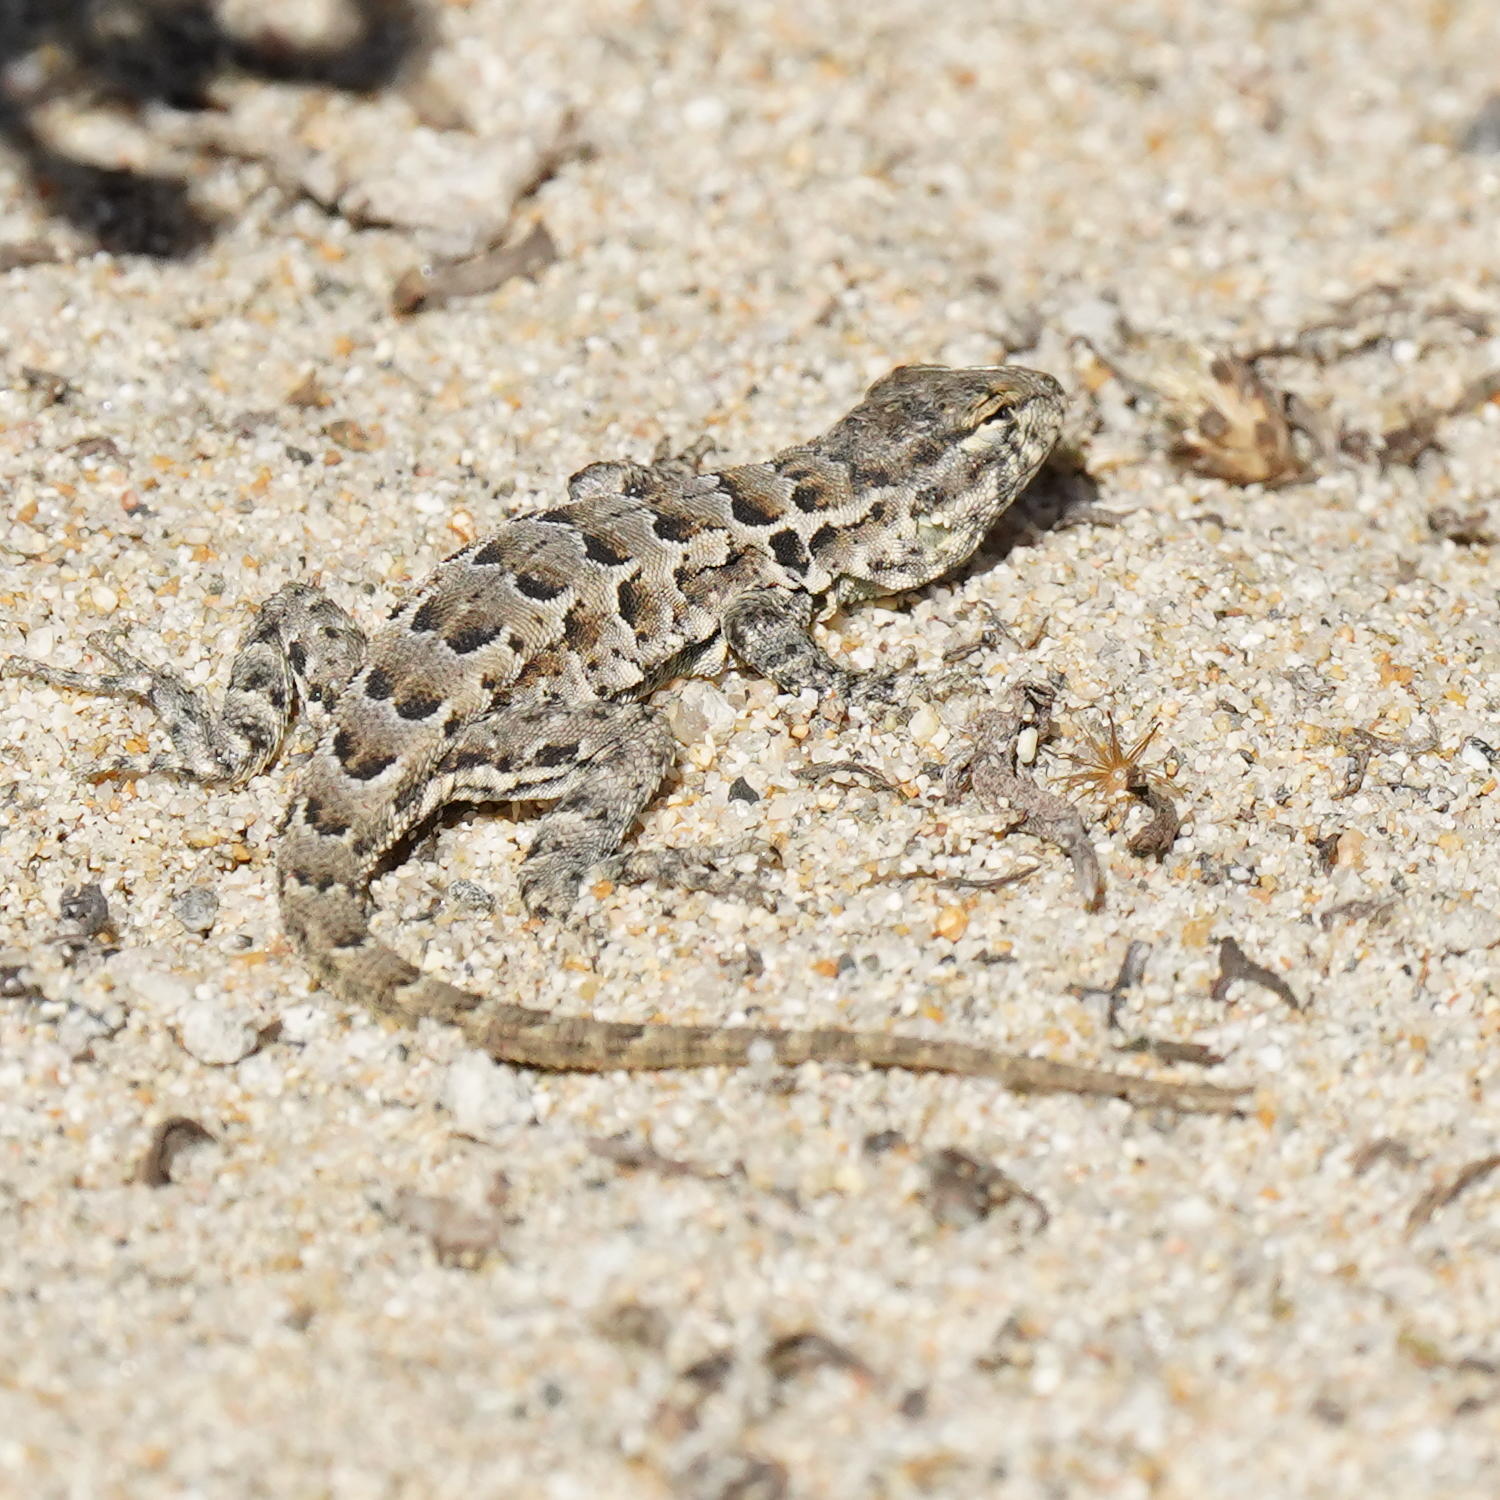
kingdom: Animalia
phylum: Chordata
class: Squamata
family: Phrynosomatidae
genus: Uta
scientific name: Uta stansburiana
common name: Side-blotched lizard
